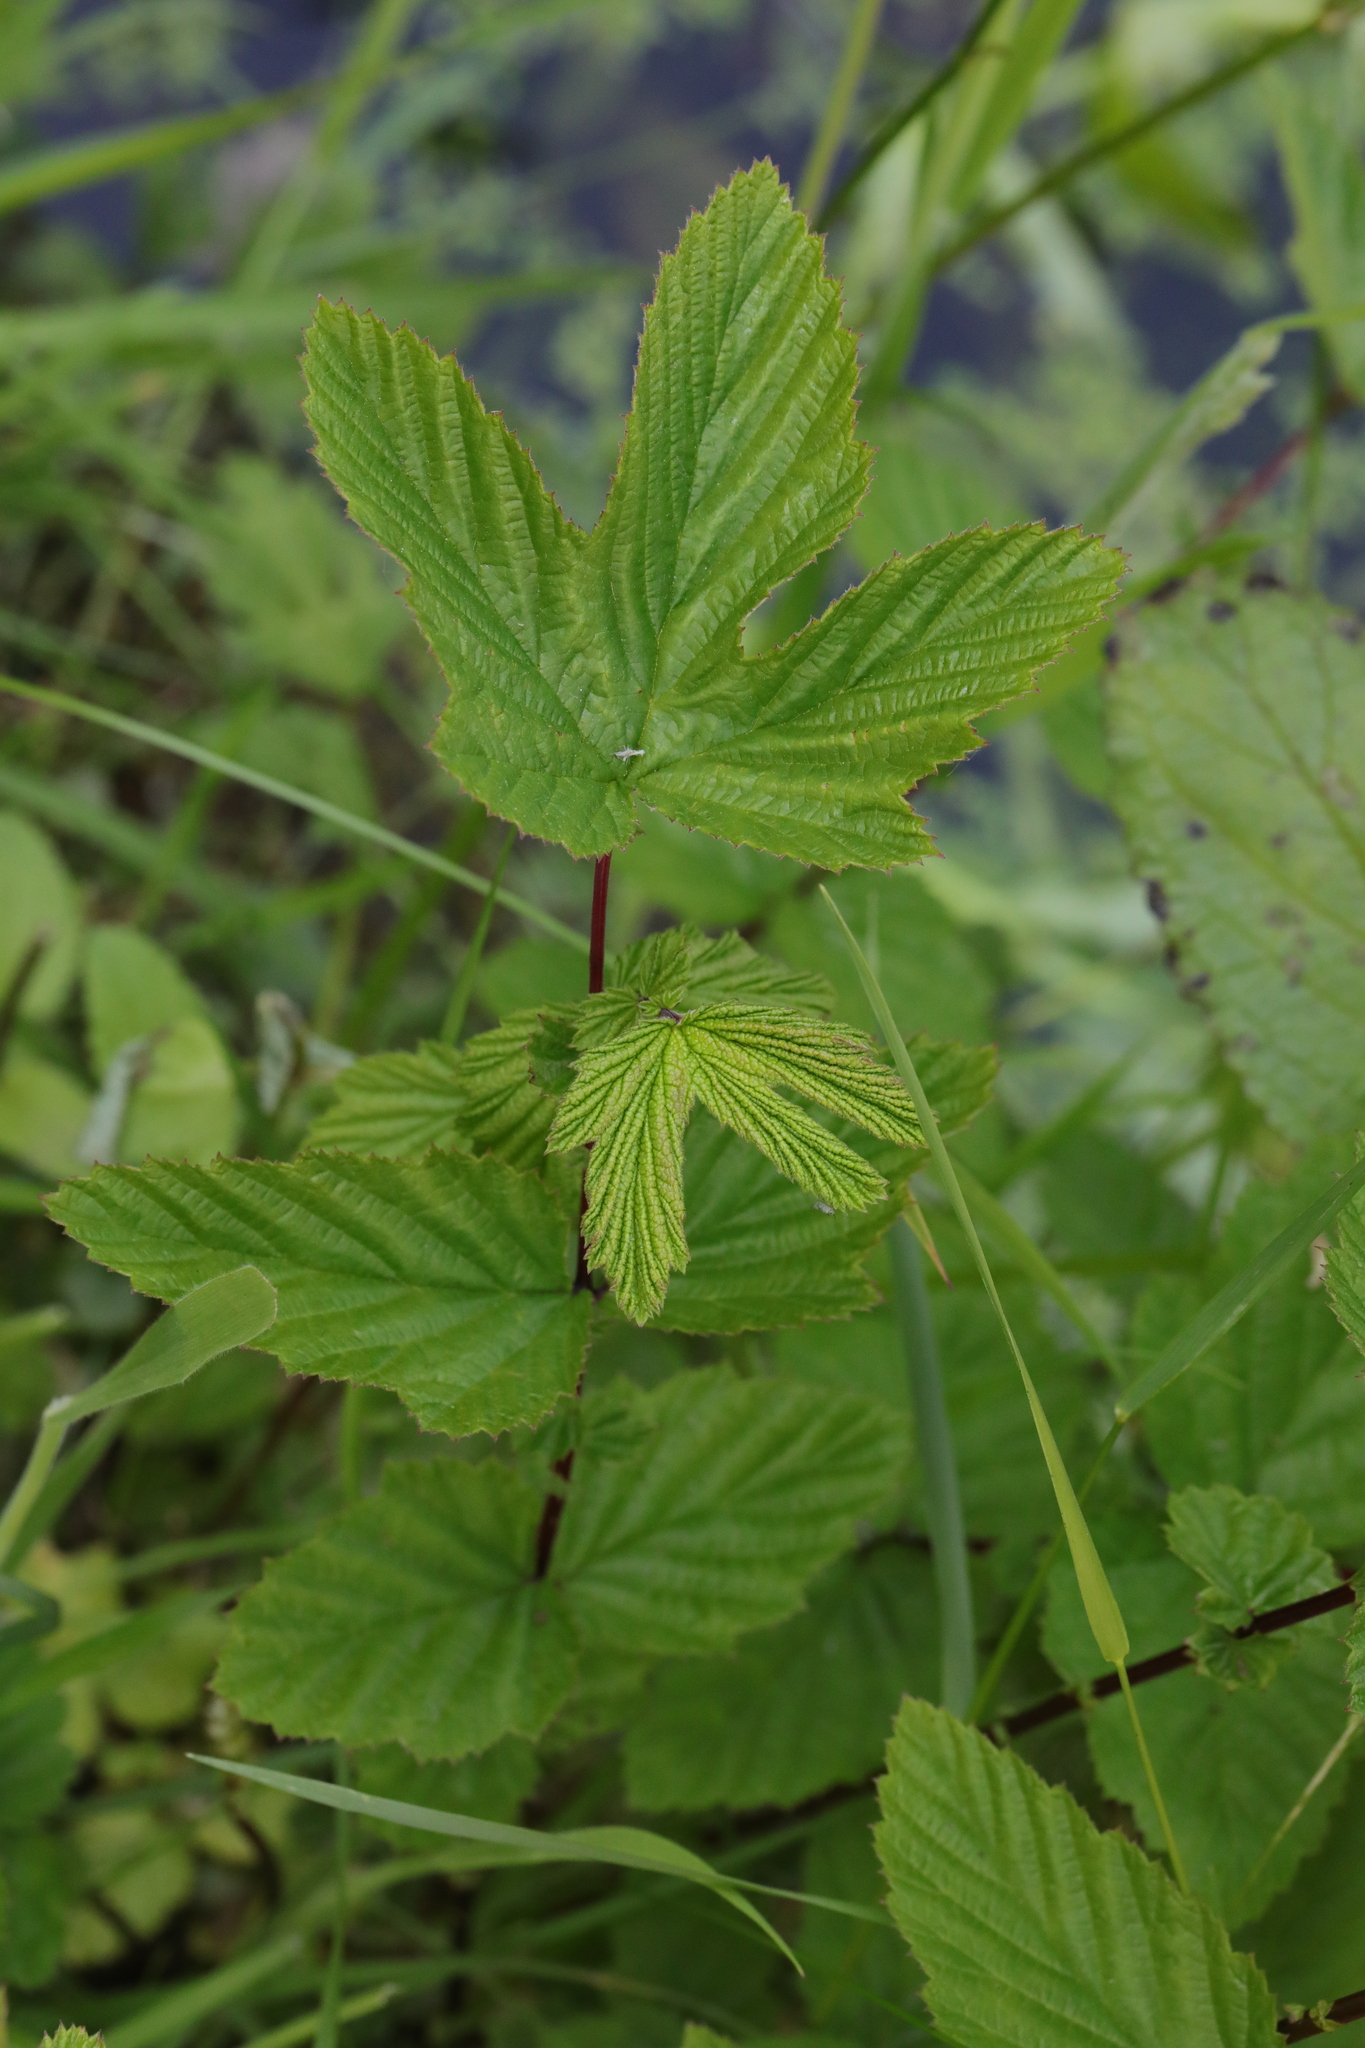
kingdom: Plantae
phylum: Tracheophyta
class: Magnoliopsida
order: Rosales
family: Rosaceae
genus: Filipendula
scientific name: Filipendula ulmaria
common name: Meadowsweet
